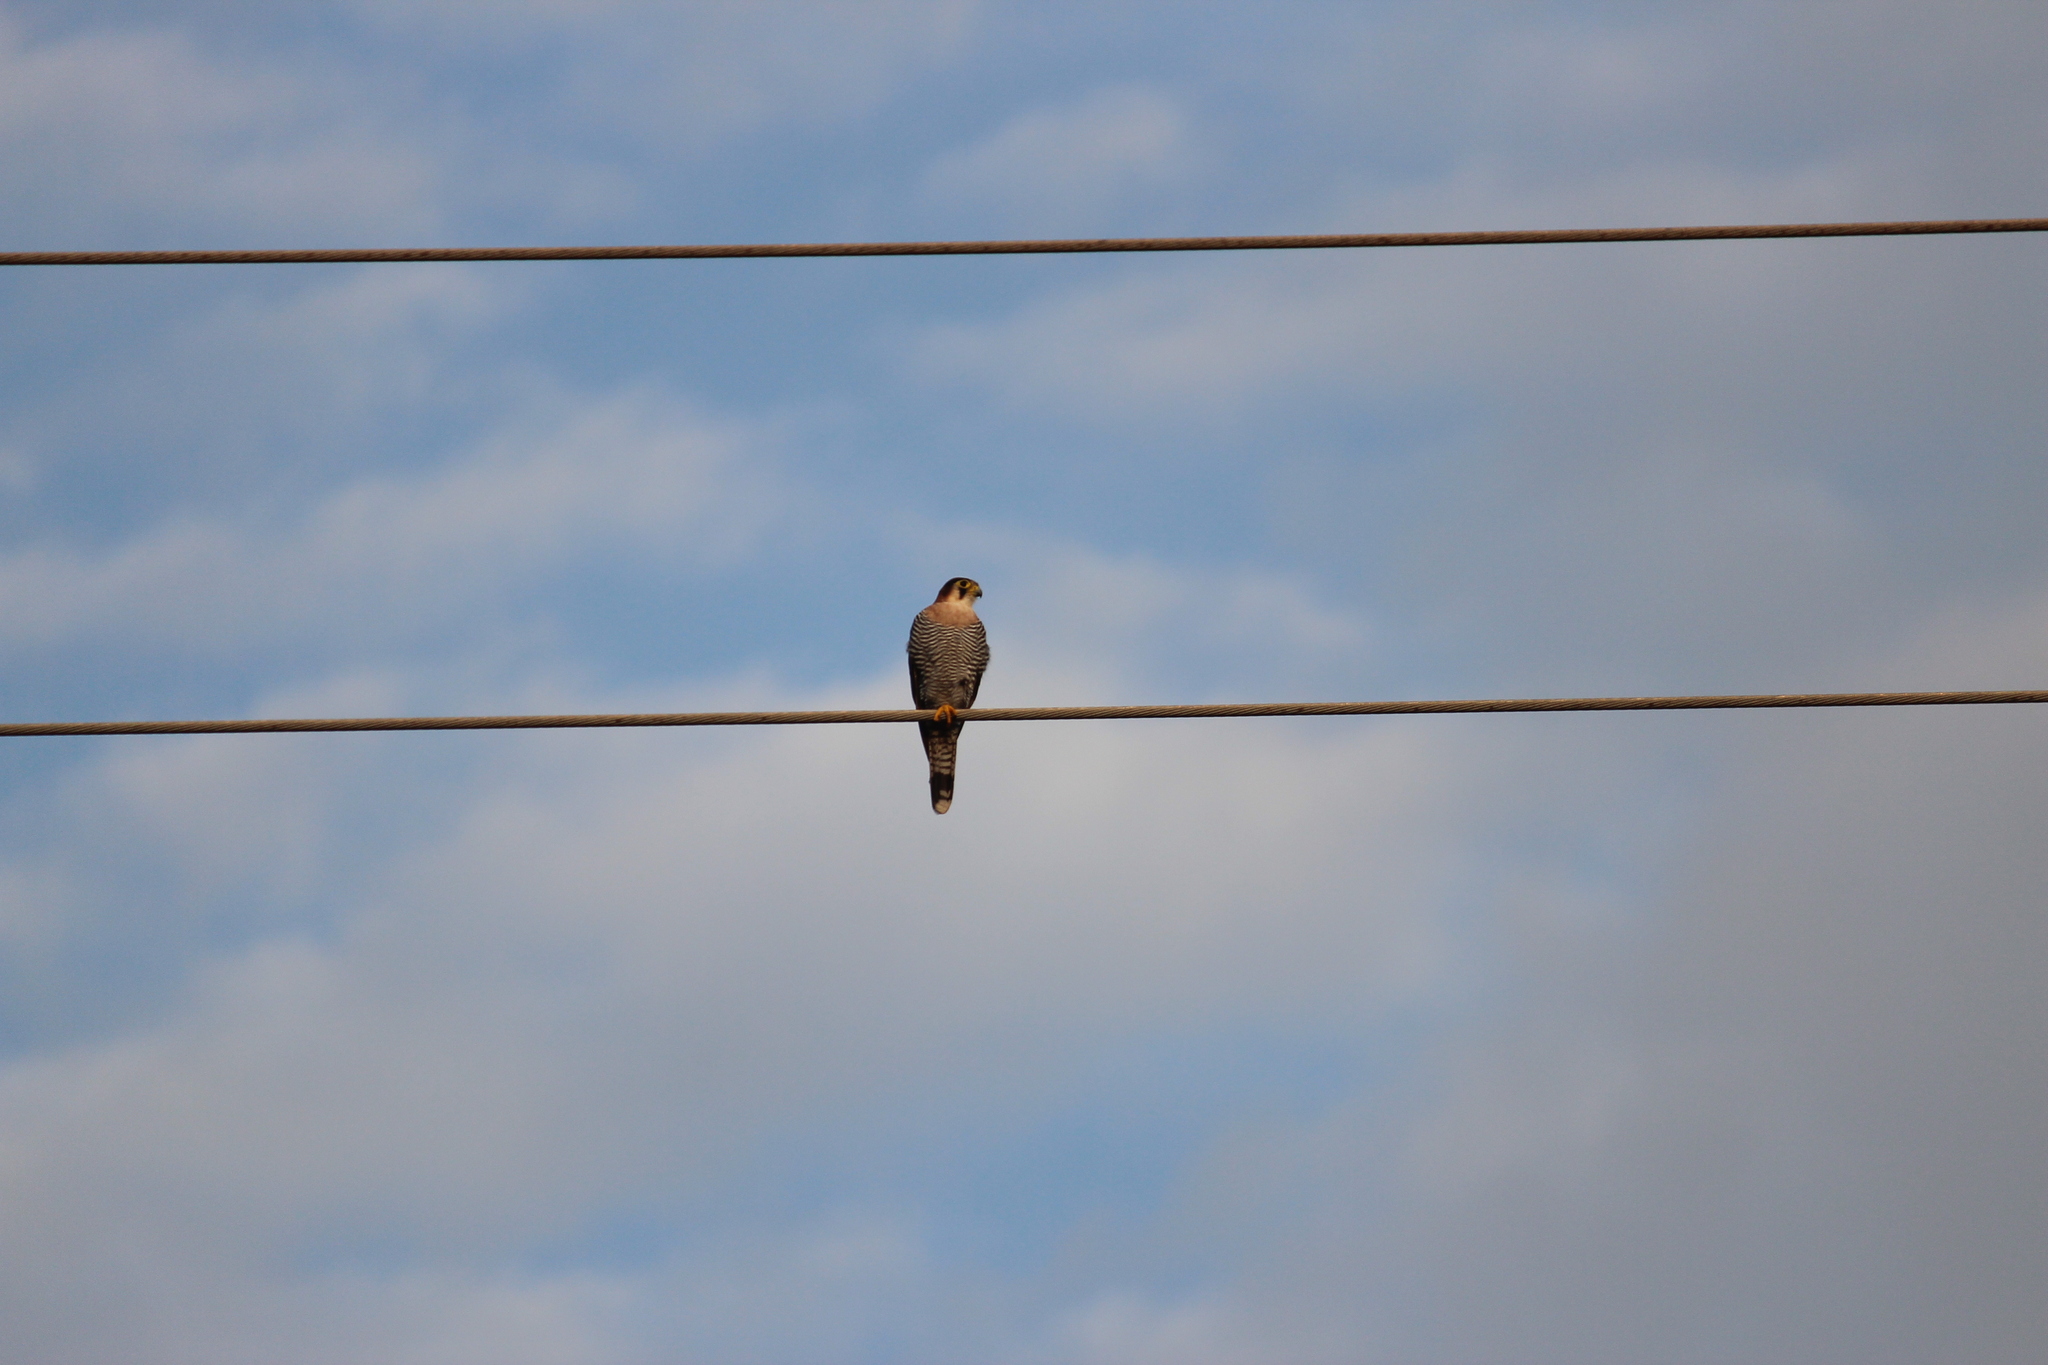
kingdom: Animalia
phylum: Chordata
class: Aves
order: Falconiformes
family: Falconidae
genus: Falco
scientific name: Falco chicquera
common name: Red-necked falcon
